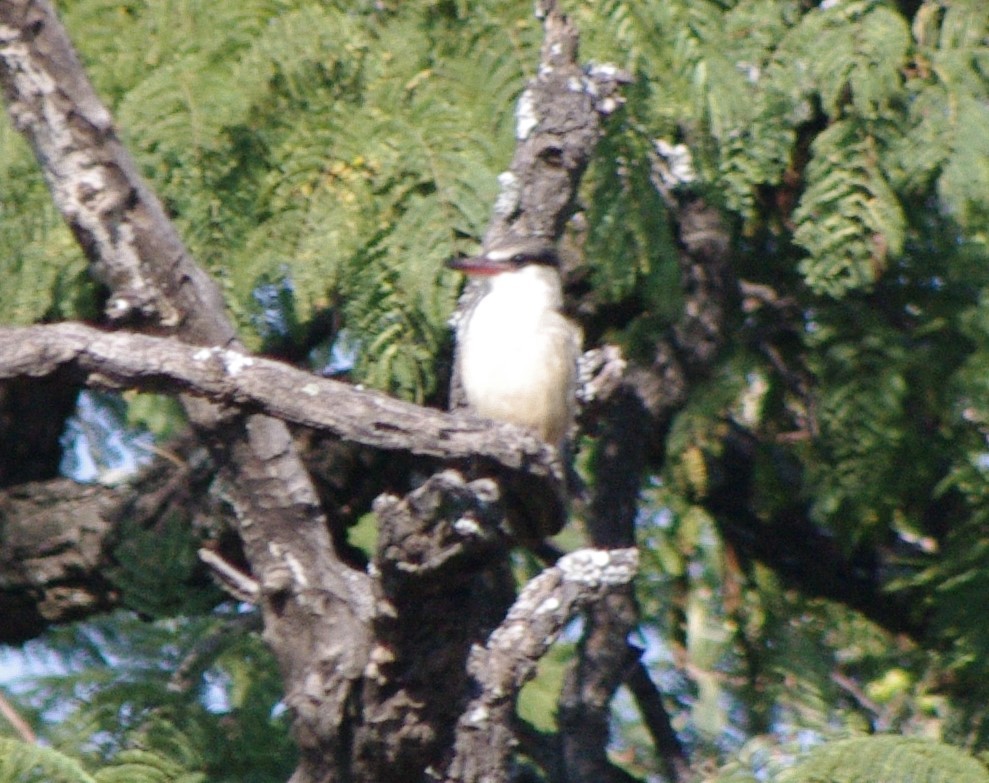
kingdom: Animalia
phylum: Chordata
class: Aves
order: Coraciiformes
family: Alcedinidae
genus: Halcyon
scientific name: Halcyon chelicuti
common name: Striped kingfisher
